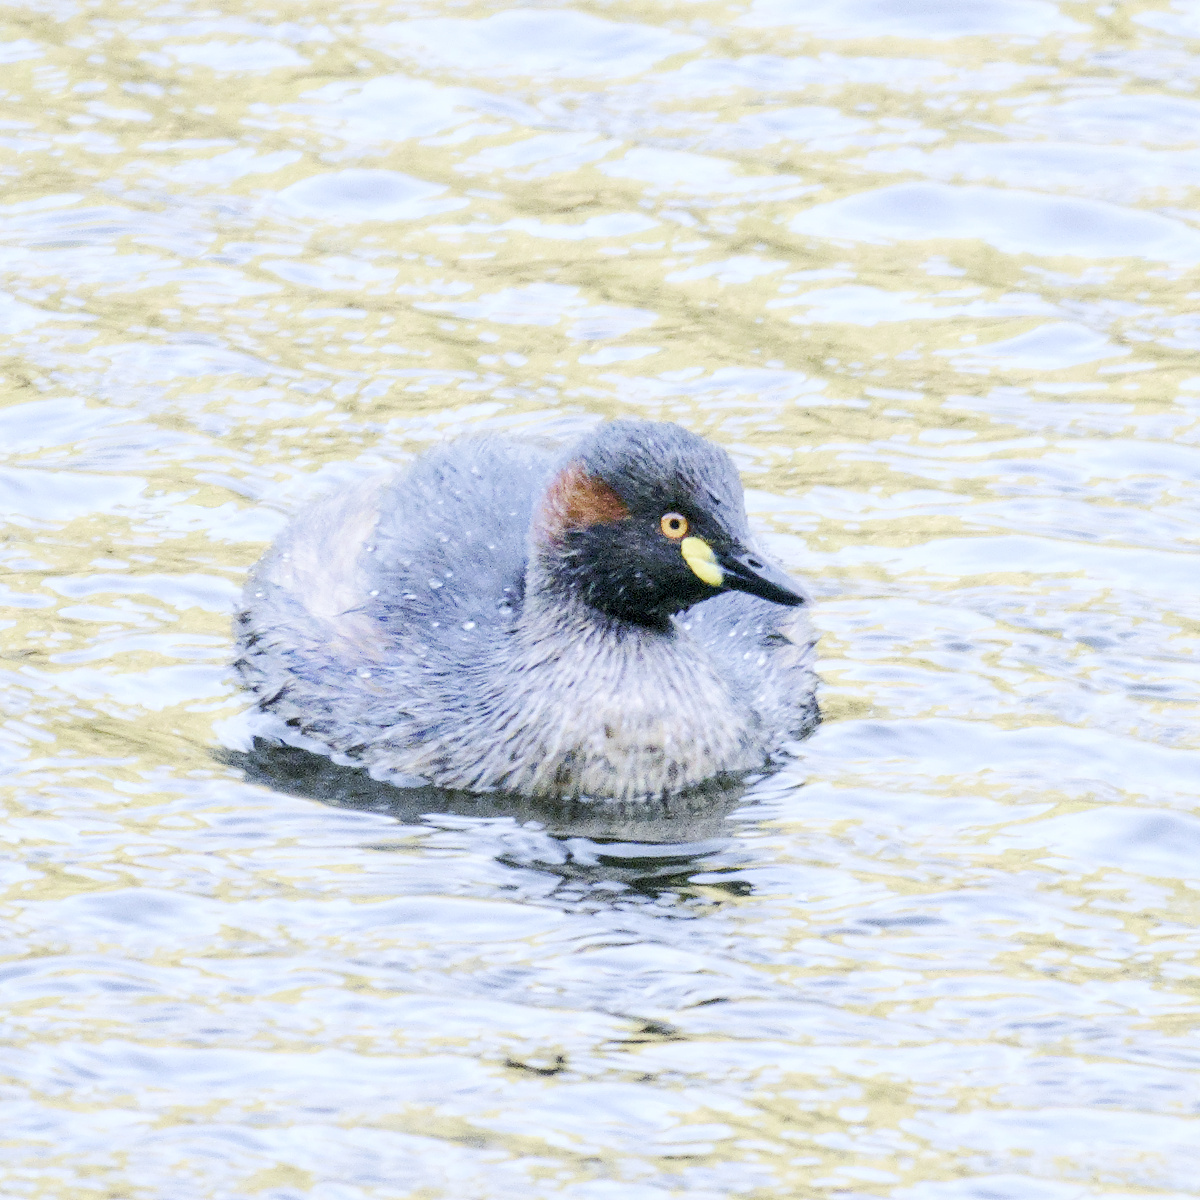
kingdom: Animalia
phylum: Chordata
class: Aves
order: Podicipediformes
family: Podicipedidae
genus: Tachybaptus
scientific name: Tachybaptus novaehollandiae
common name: Australasian grebe
